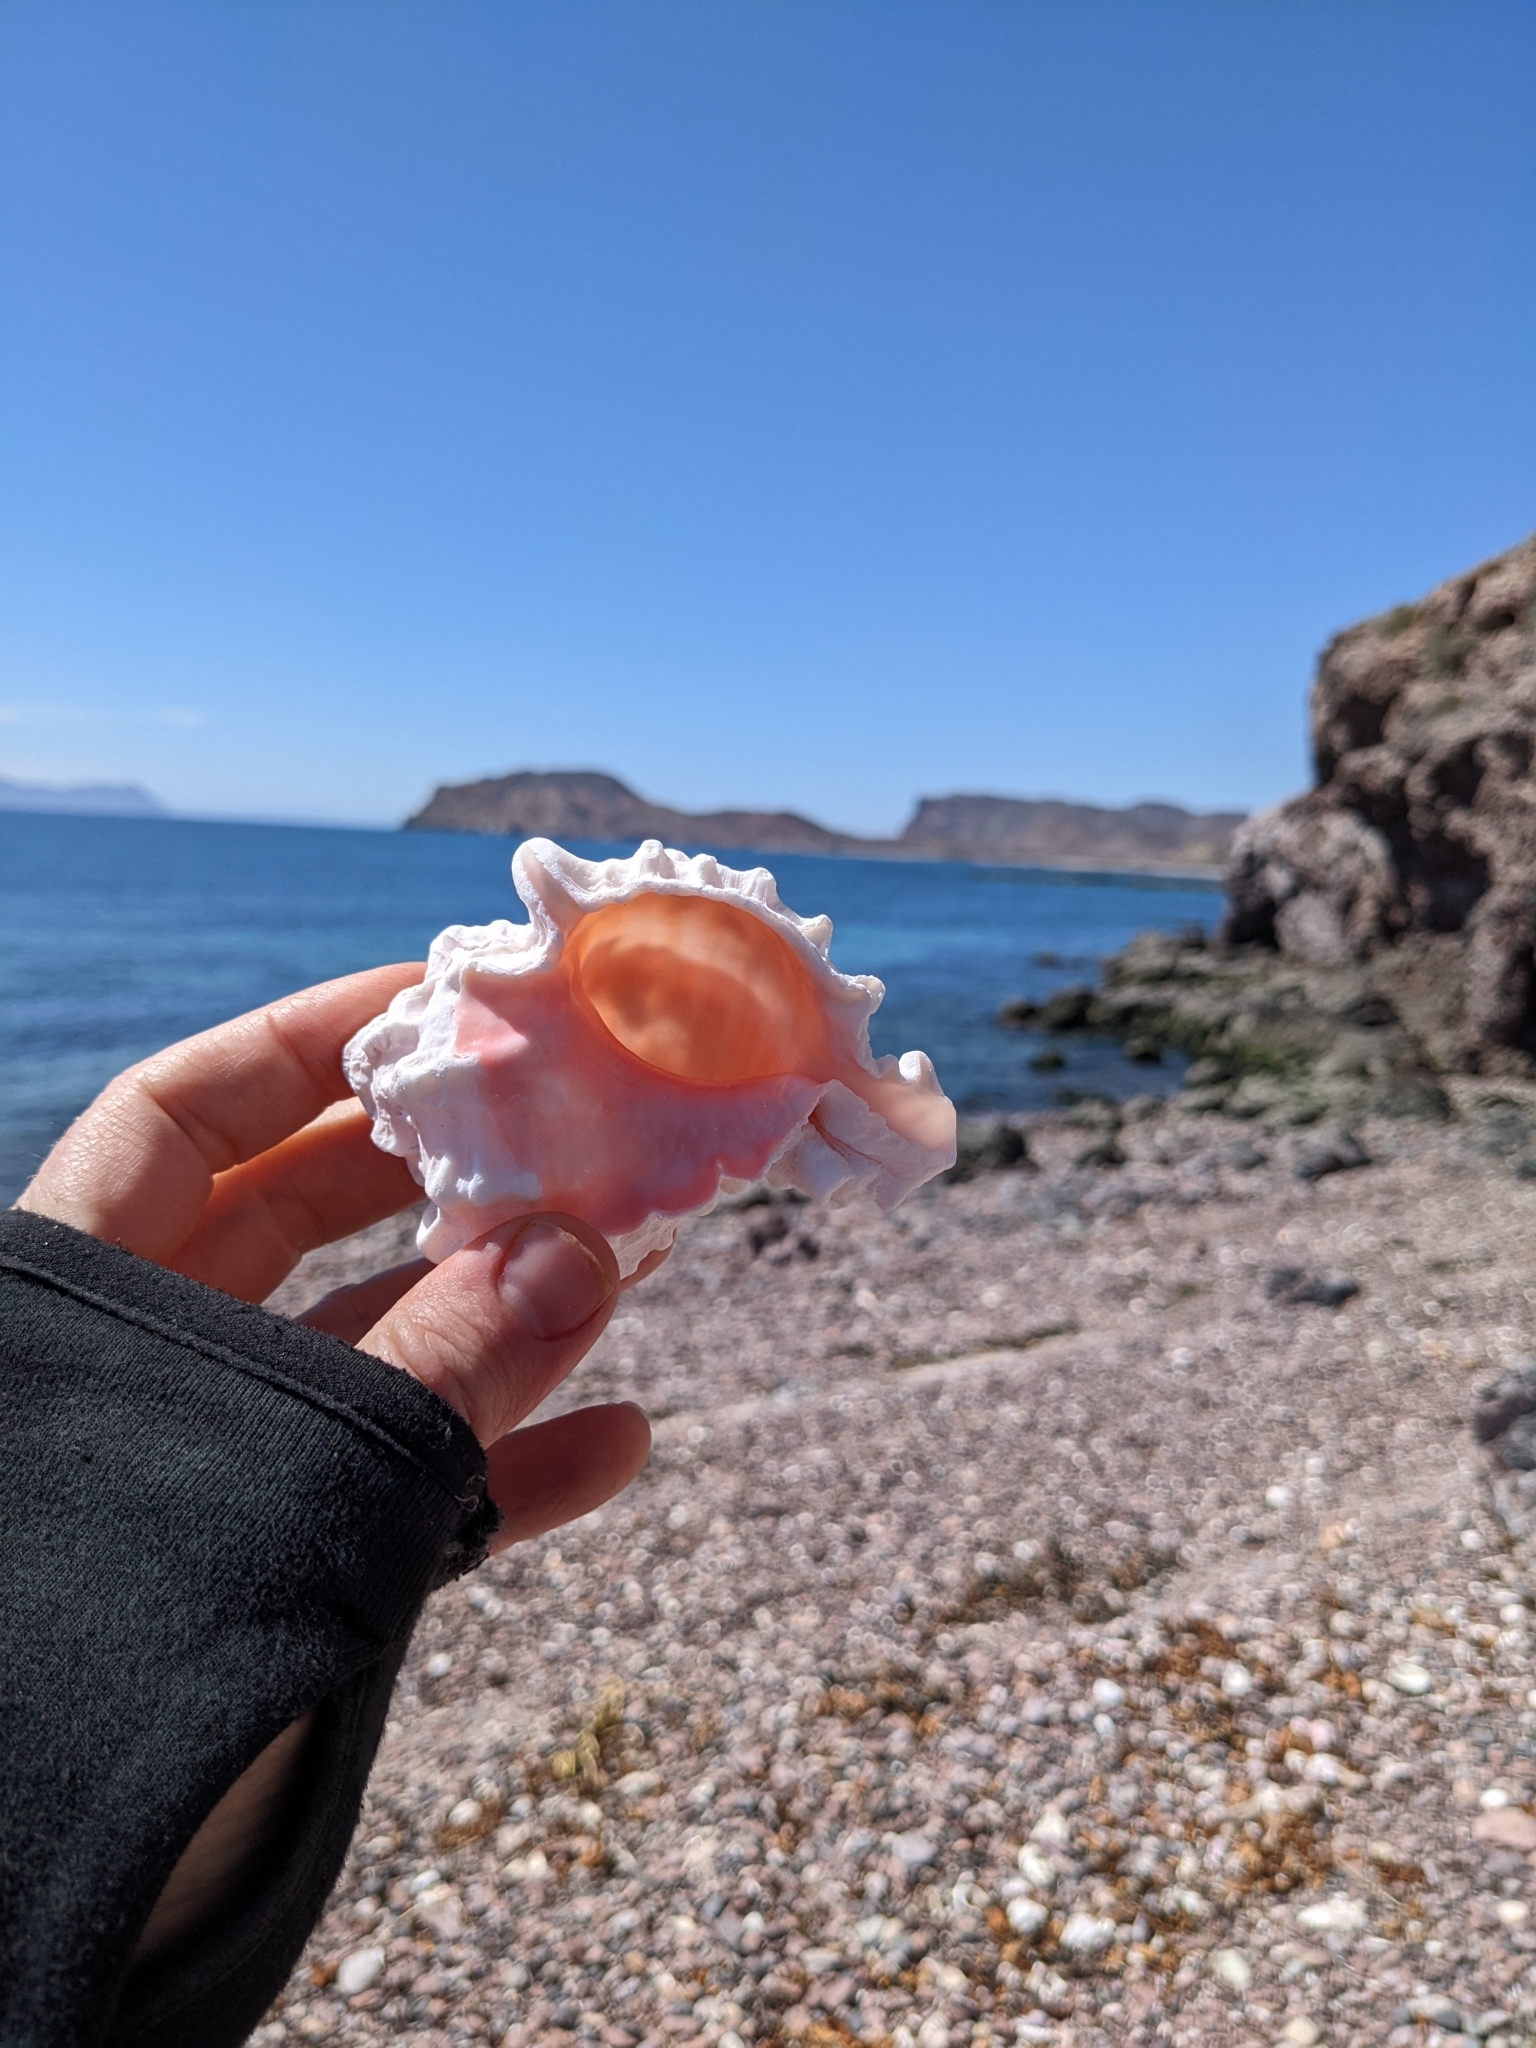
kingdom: Animalia
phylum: Mollusca
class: Gastropoda
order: Neogastropoda
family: Muricidae
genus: Phyllonotus
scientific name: Phyllonotus erythrostomus
